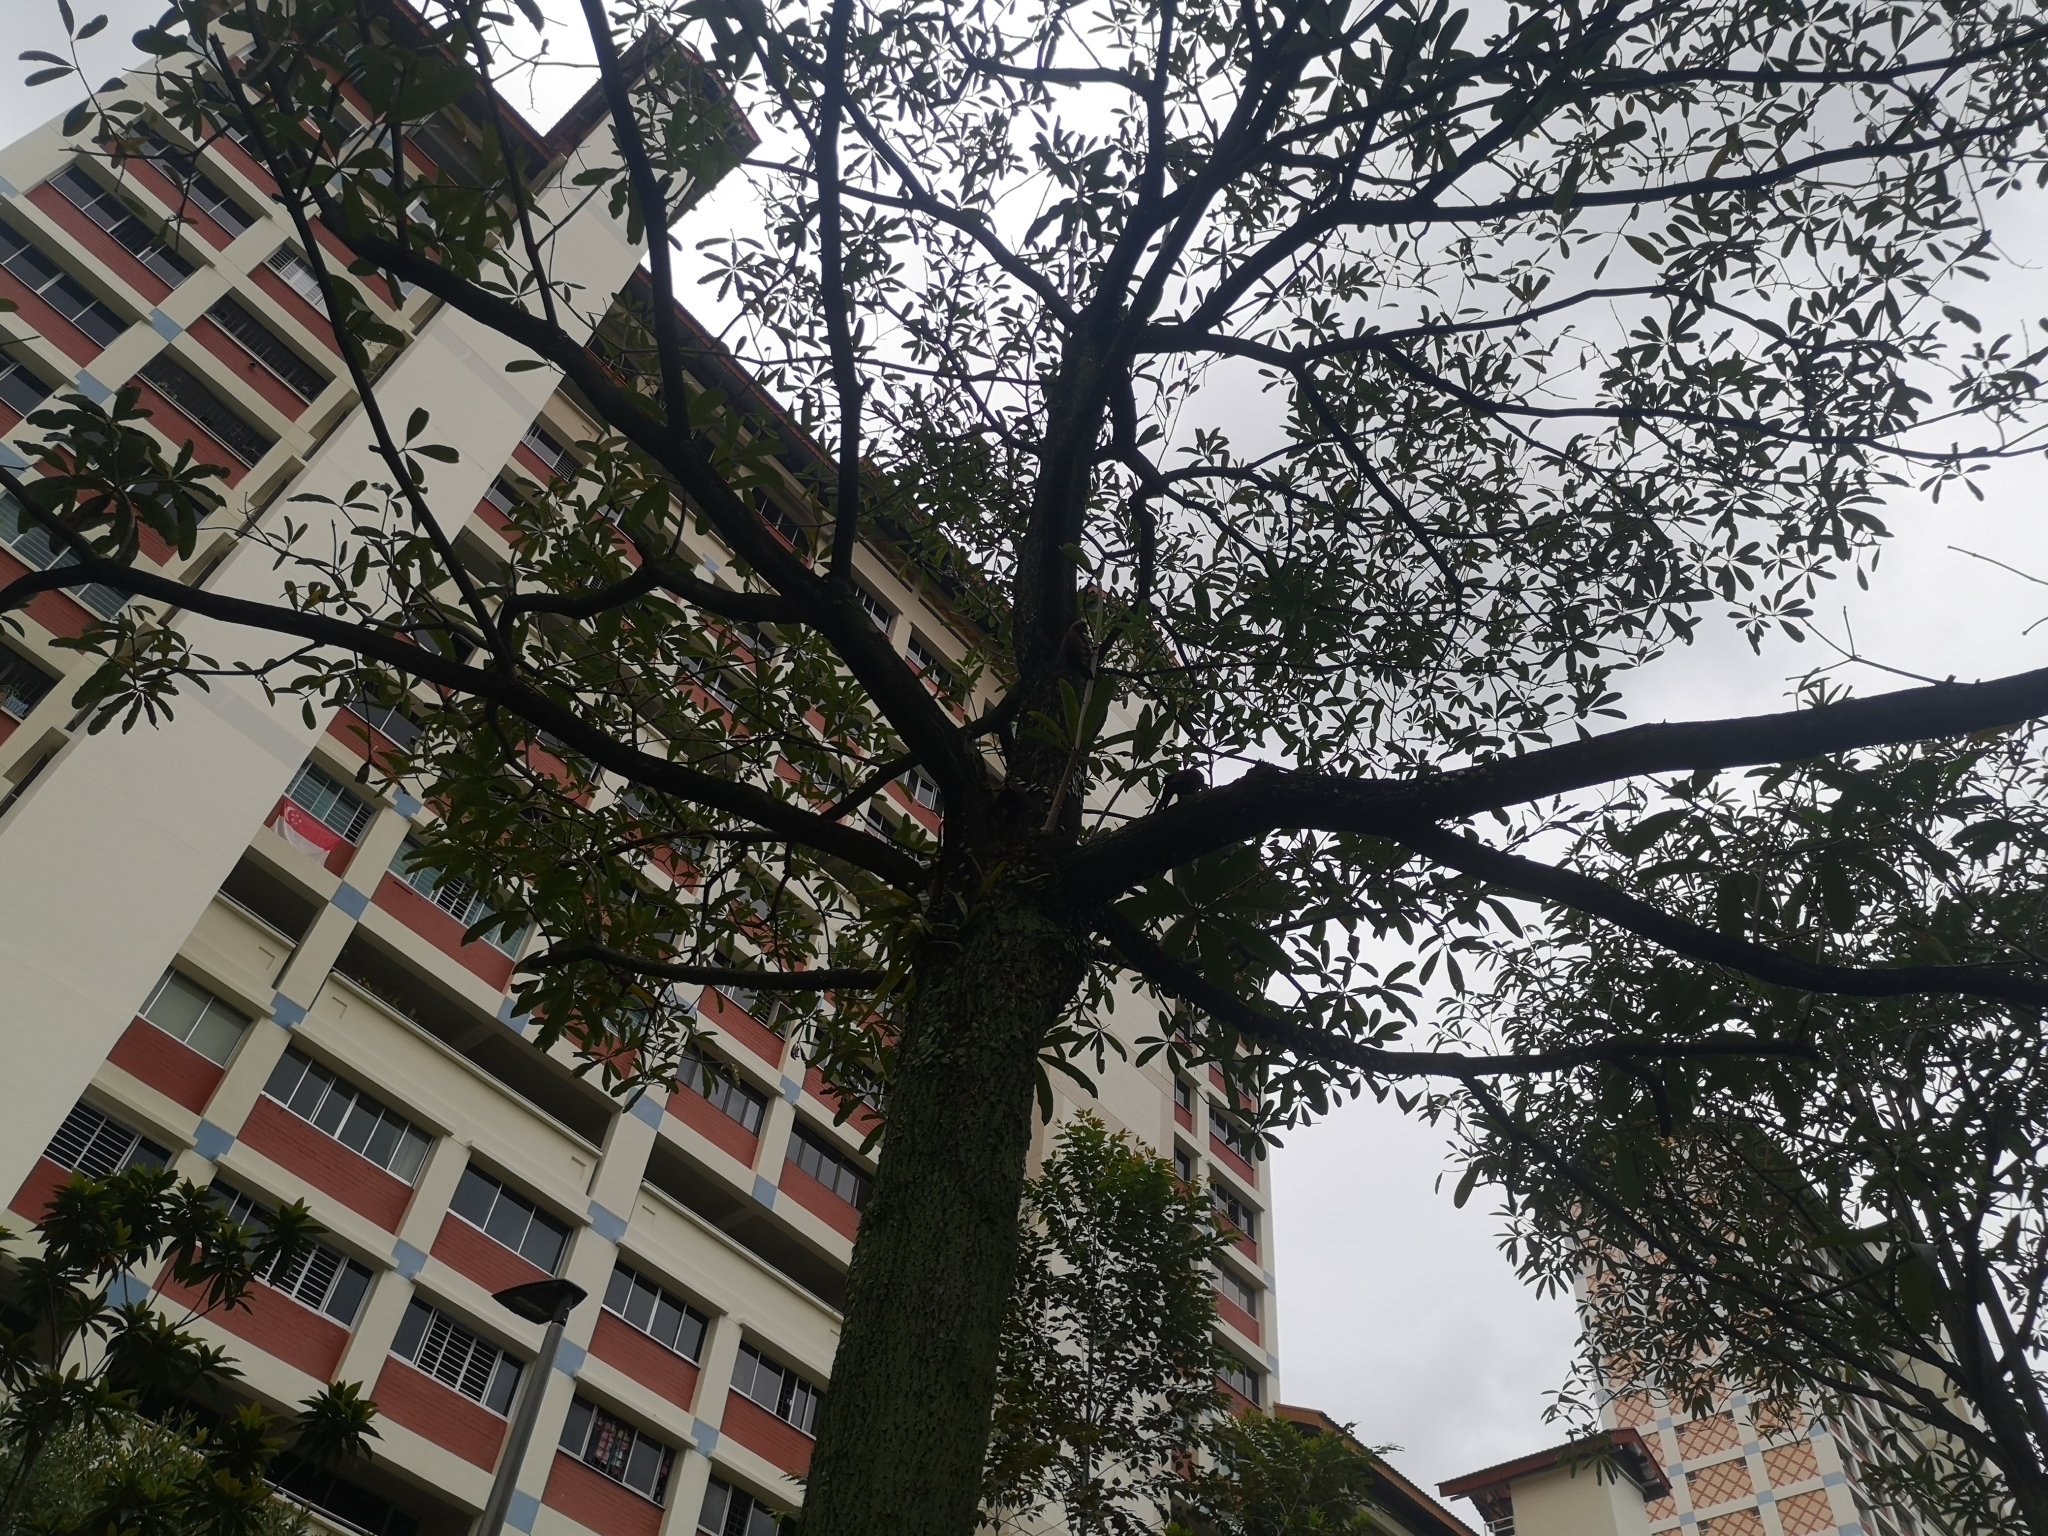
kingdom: Animalia
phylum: Chordata
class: Aves
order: Piciformes
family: Picidae
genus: Micropternus
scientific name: Micropternus brachyurus
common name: Rufous woodpecker
